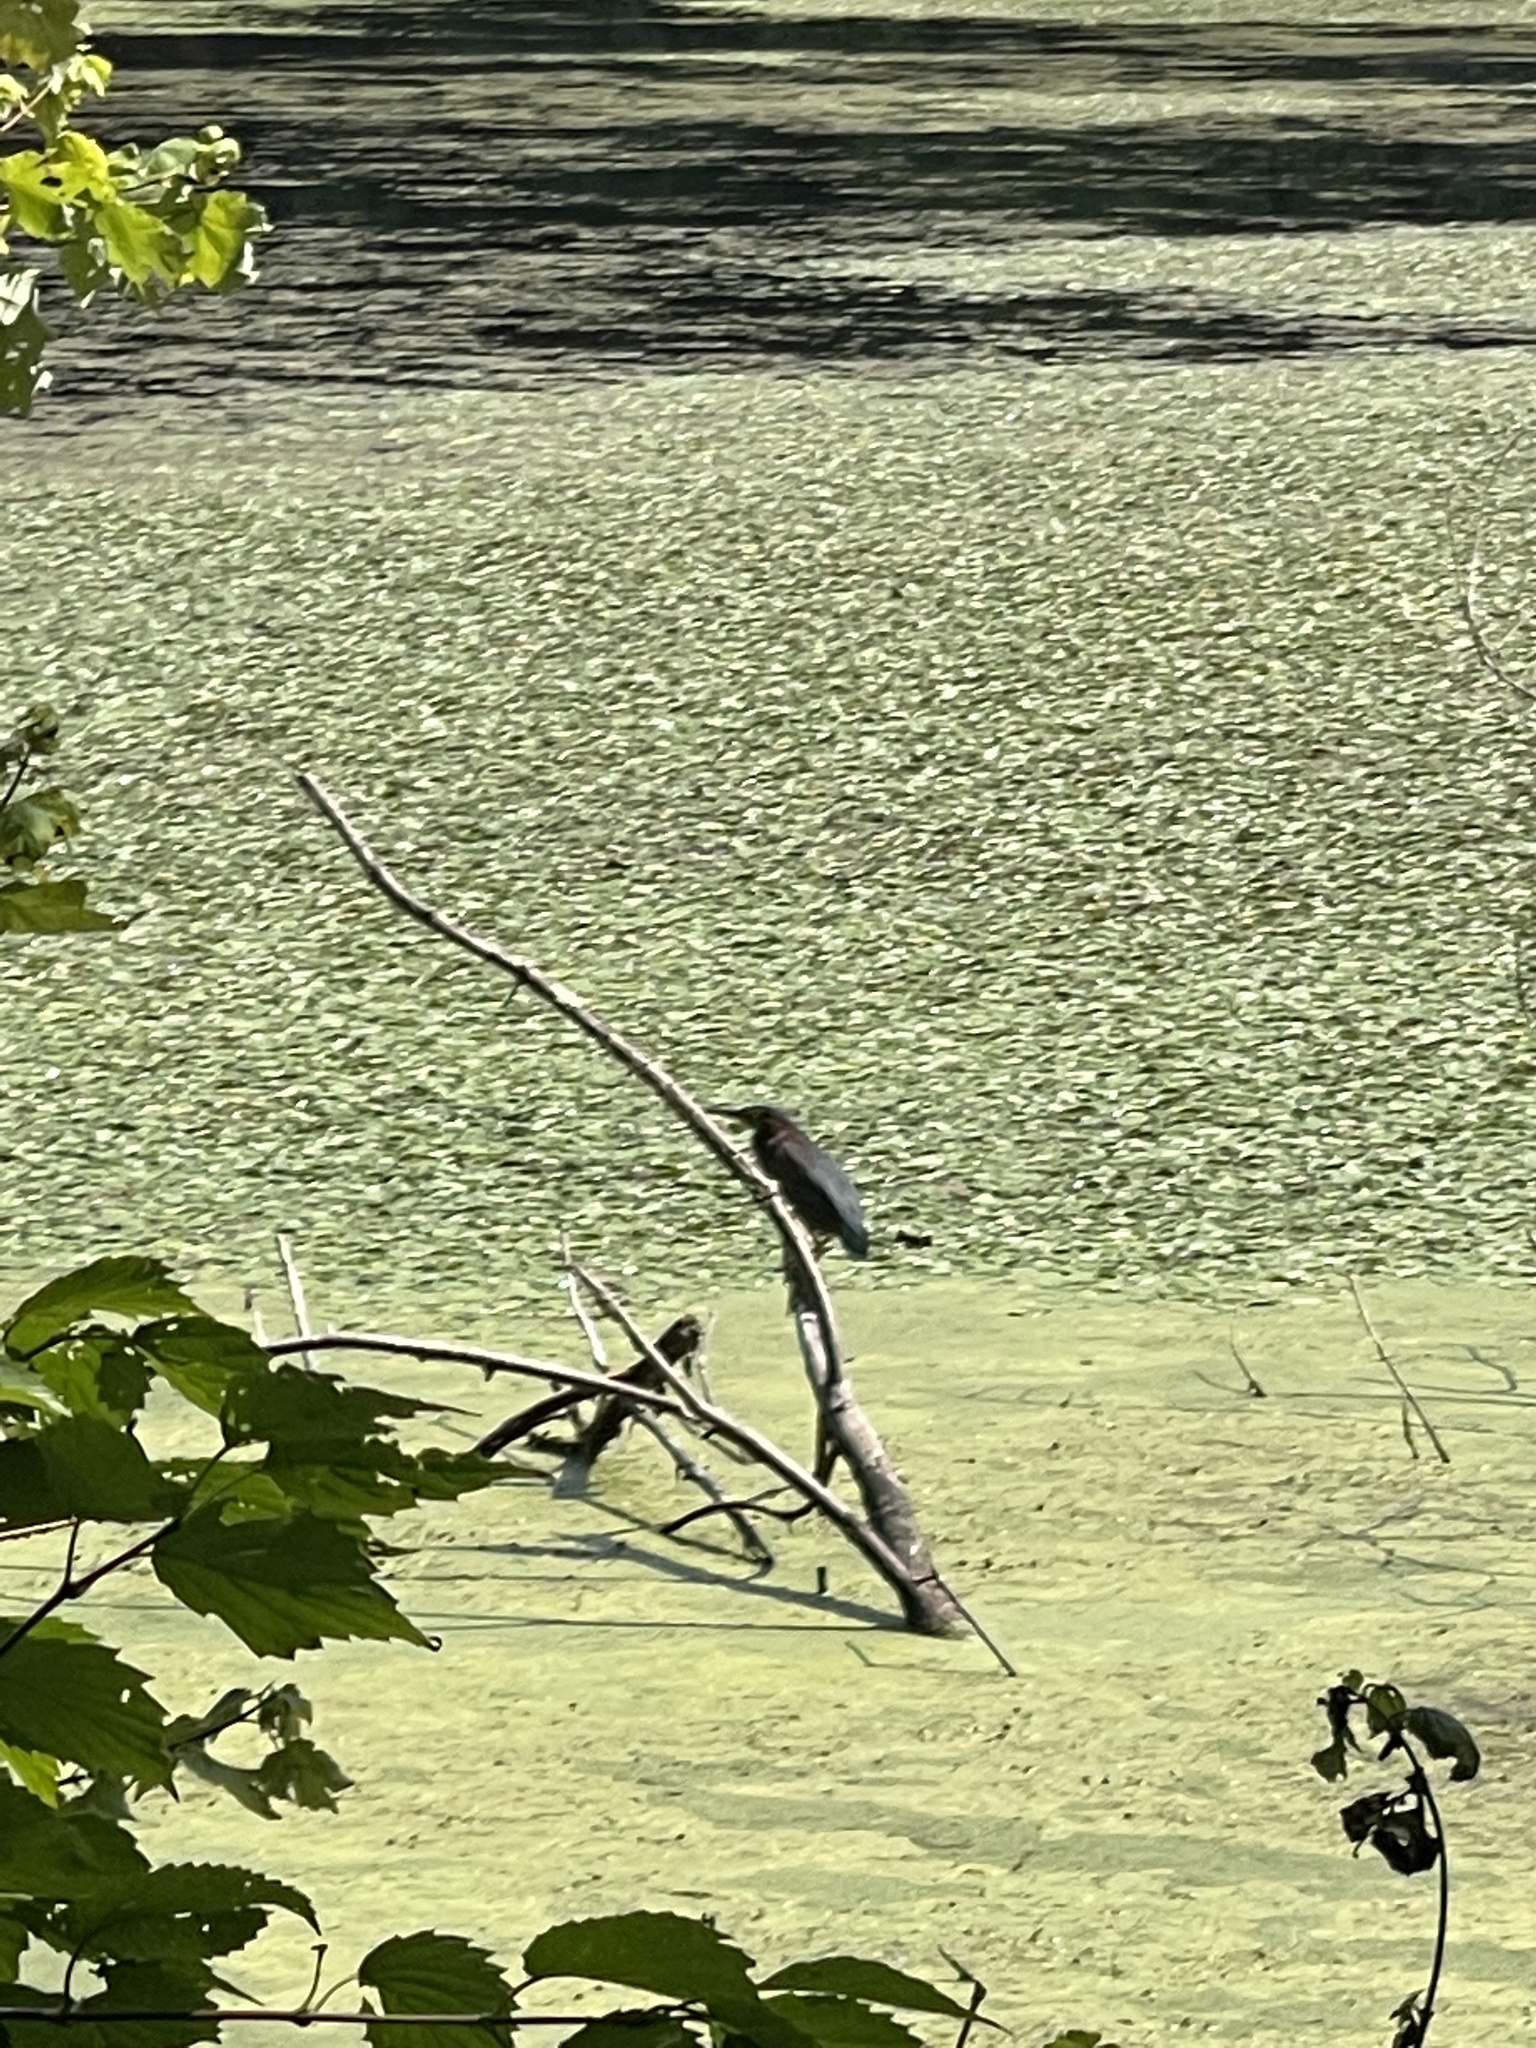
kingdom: Animalia
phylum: Chordata
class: Aves
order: Pelecaniformes
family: Ardeidae
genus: Butorides
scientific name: Butorides virescens
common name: Green heron
